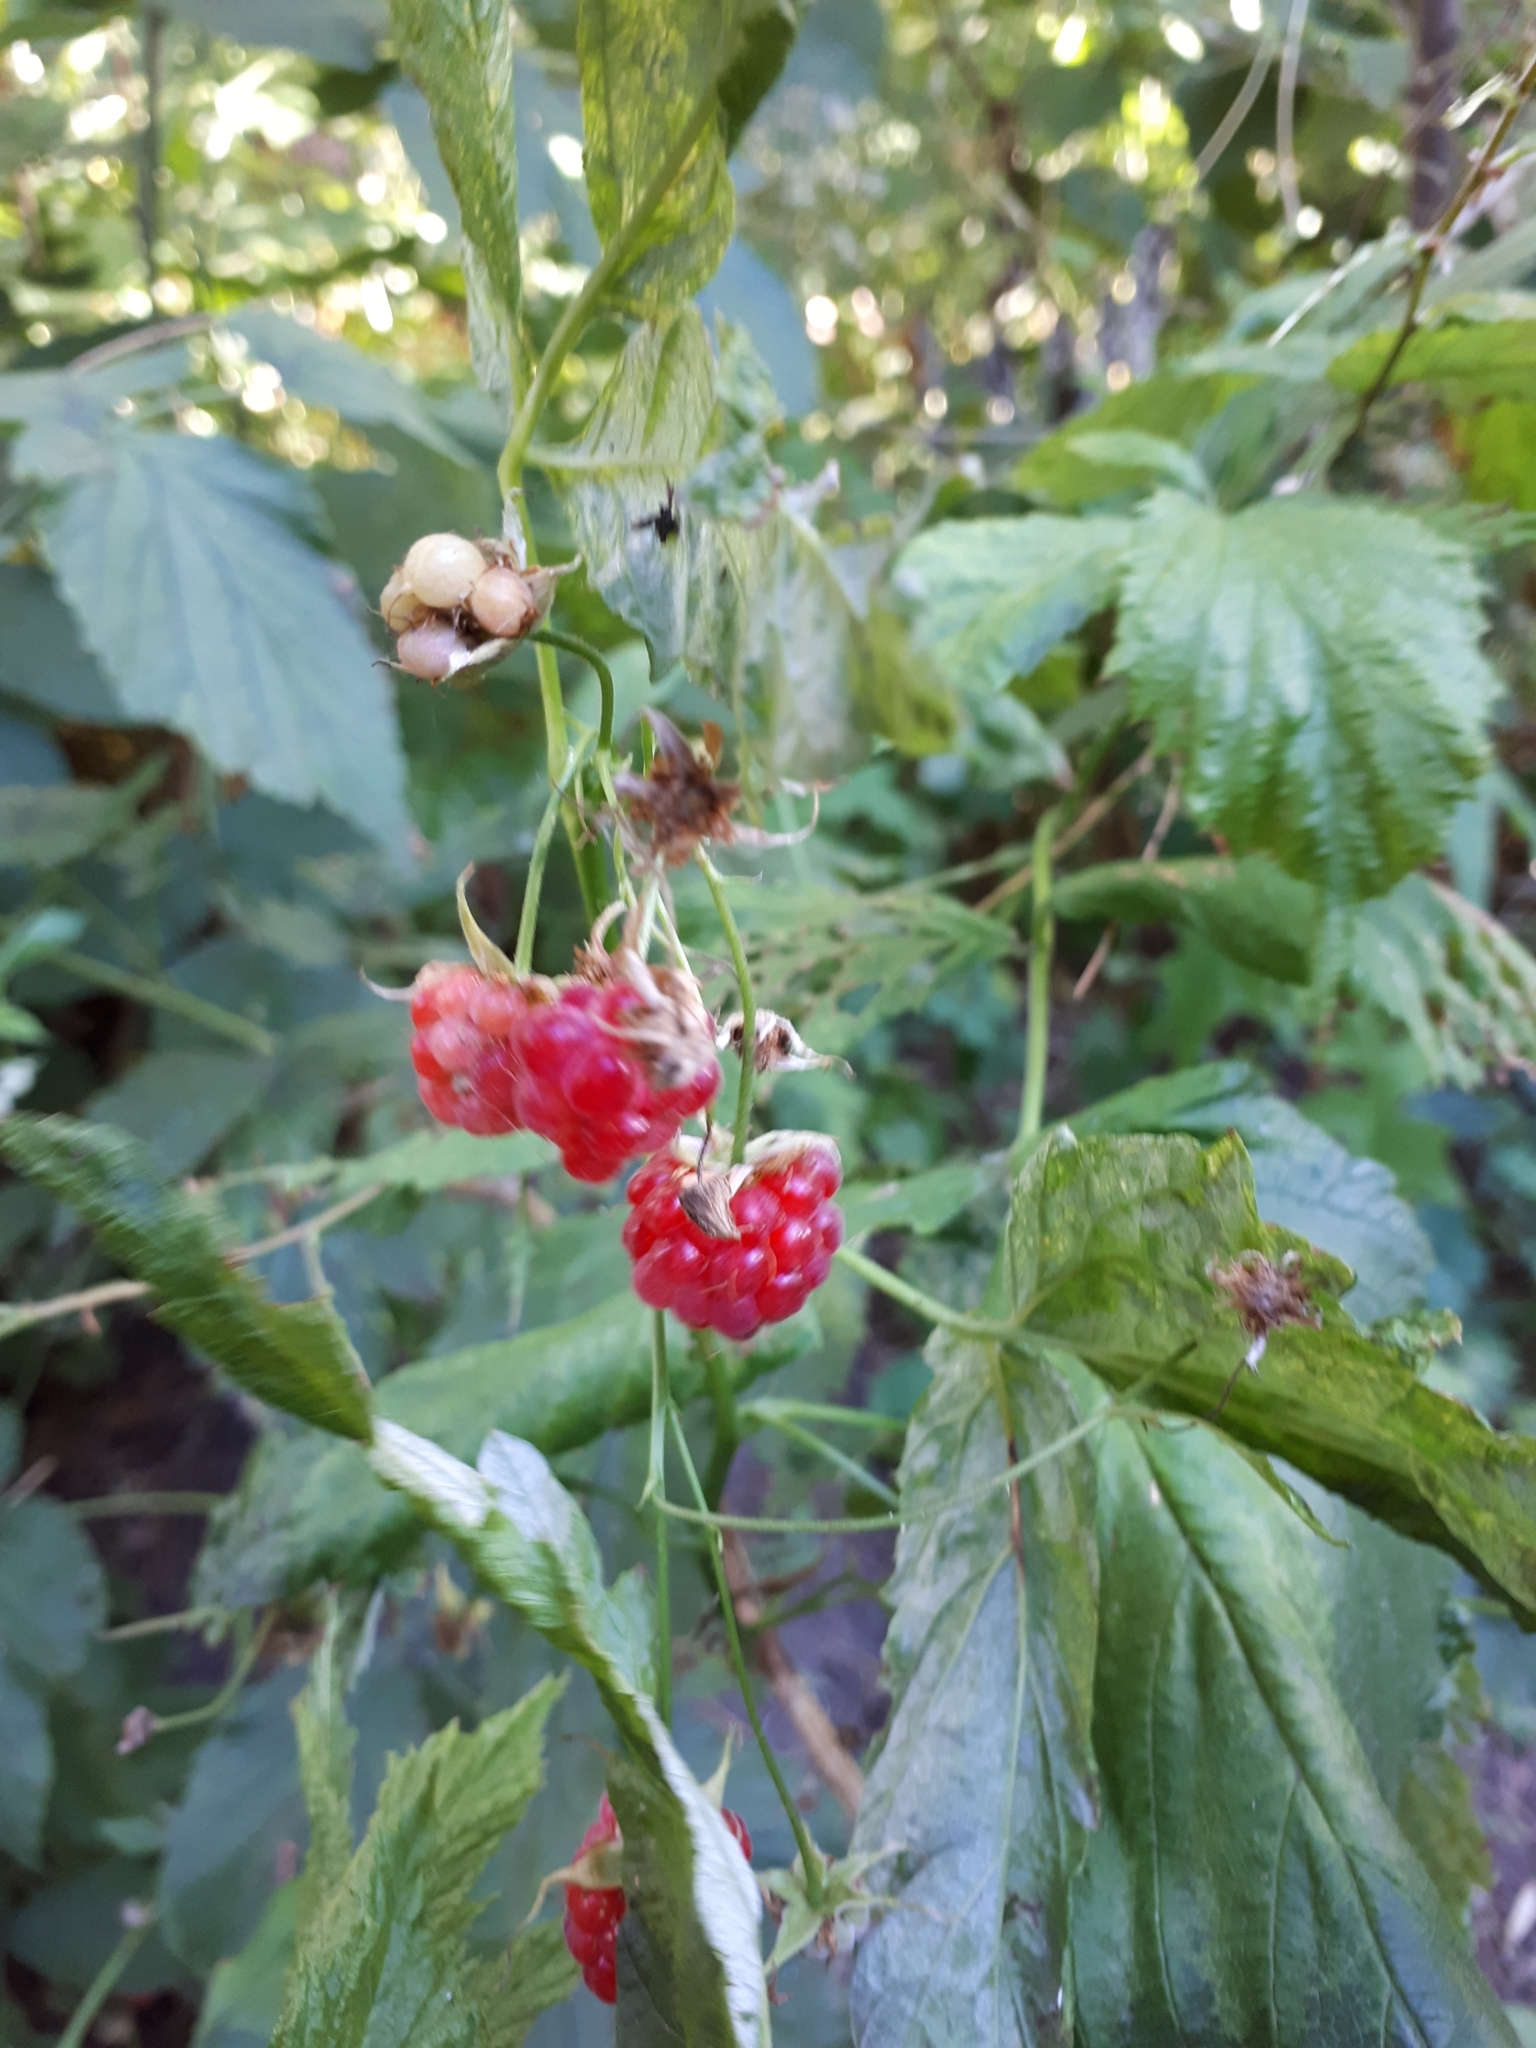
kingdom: Plantae
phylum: Tracheophyta
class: Magnoliopsida
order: Rosales
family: Rosaceae
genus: Rubus
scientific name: Rubus idaeus
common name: Raspberry
